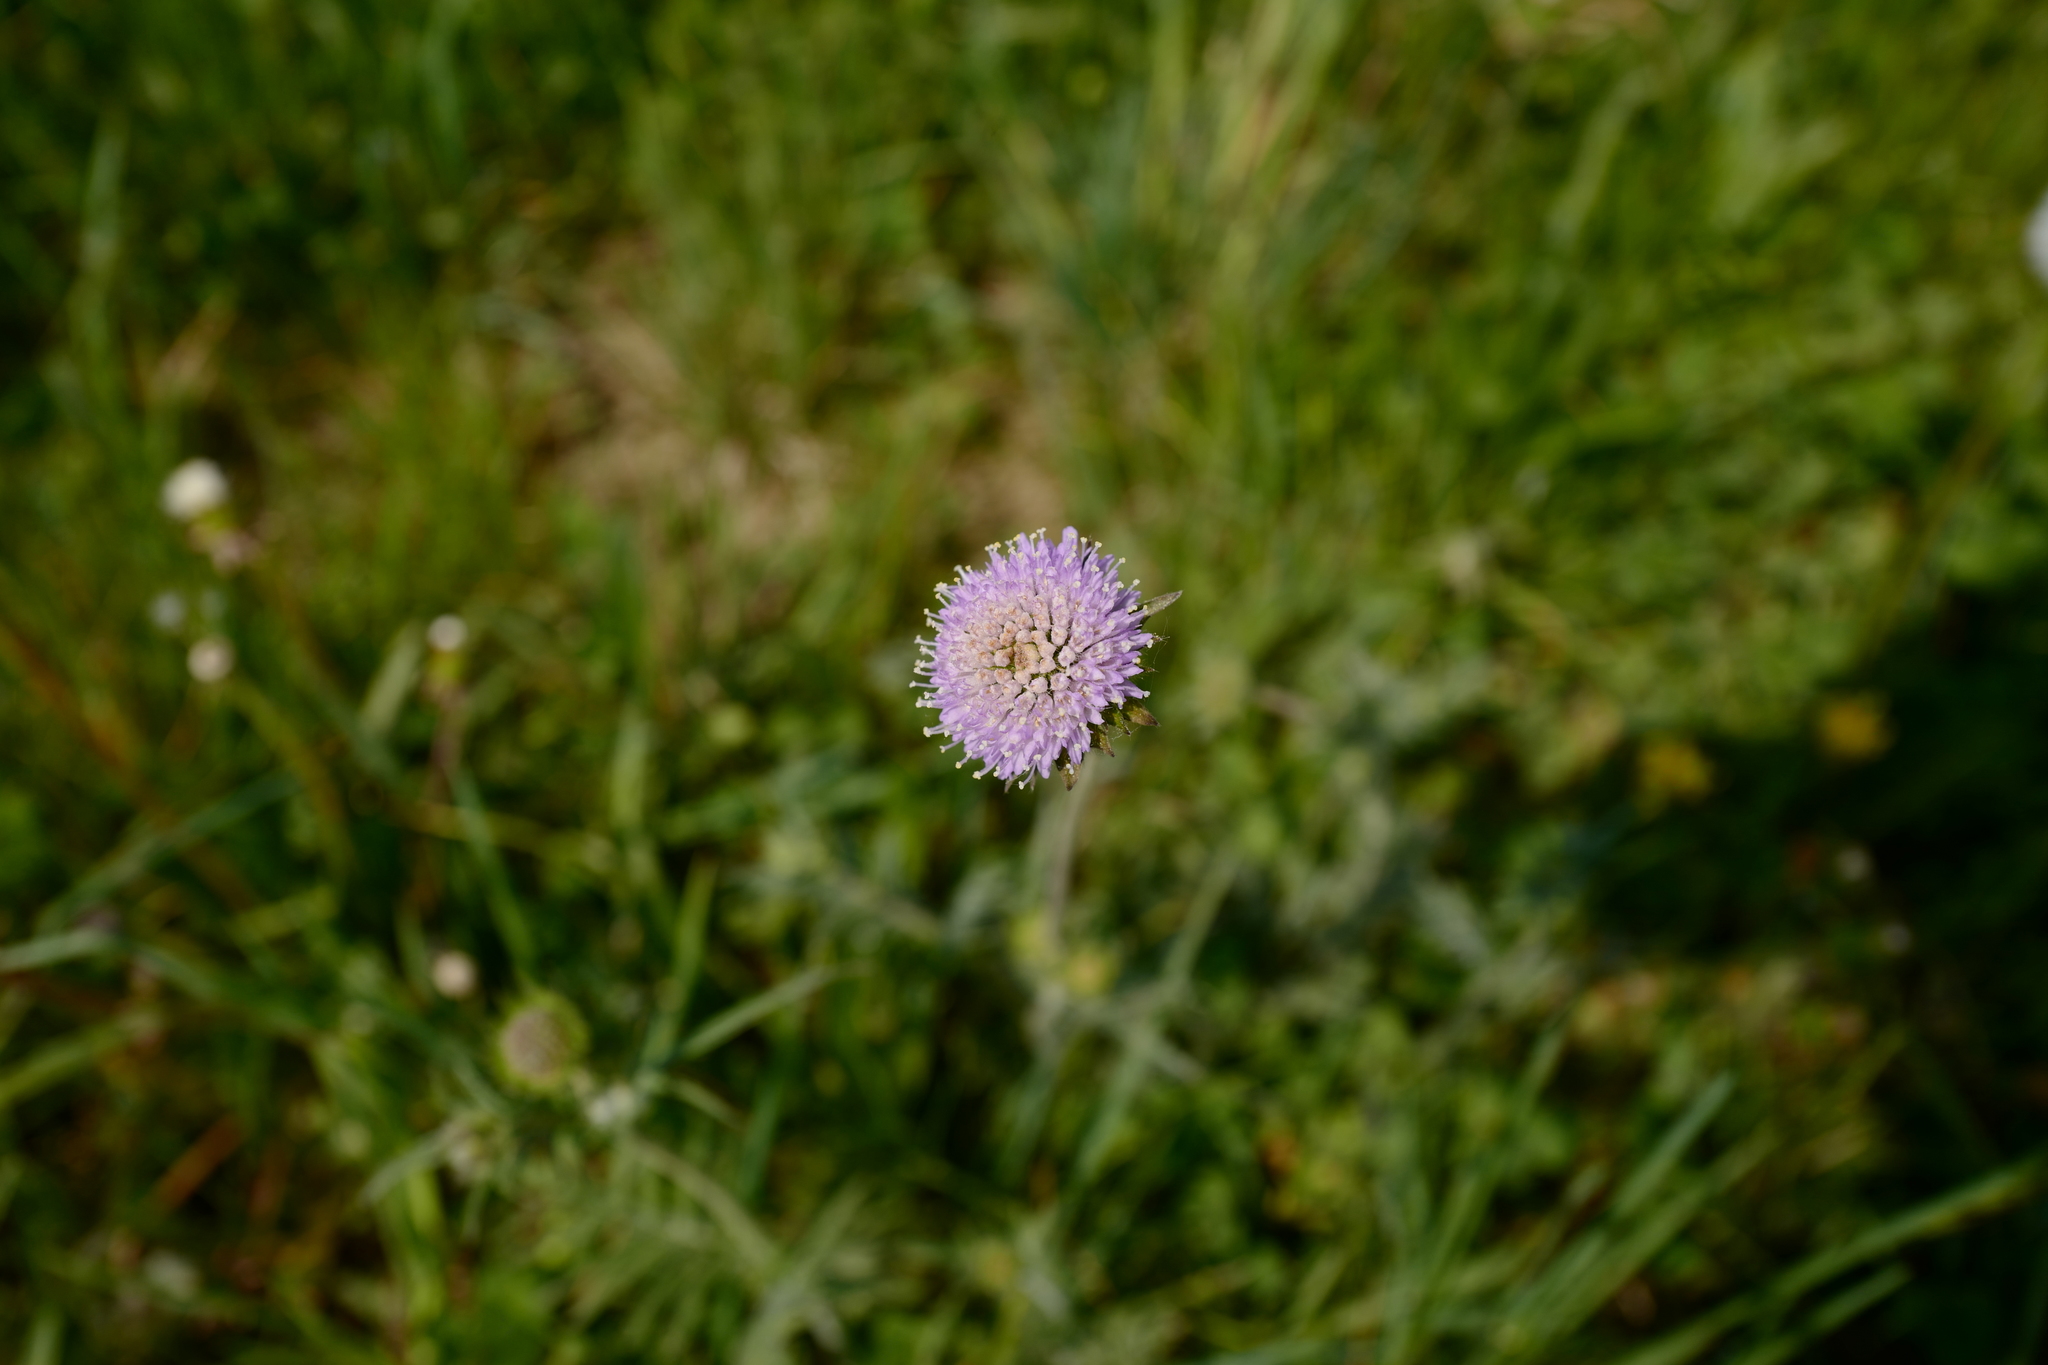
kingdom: Plantae
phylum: Tracheophyta
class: Magnoliopsida
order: Dipsacales
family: Caprifoliaceae
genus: Knautia
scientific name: Knautia arvensis
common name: Field scabiosa
